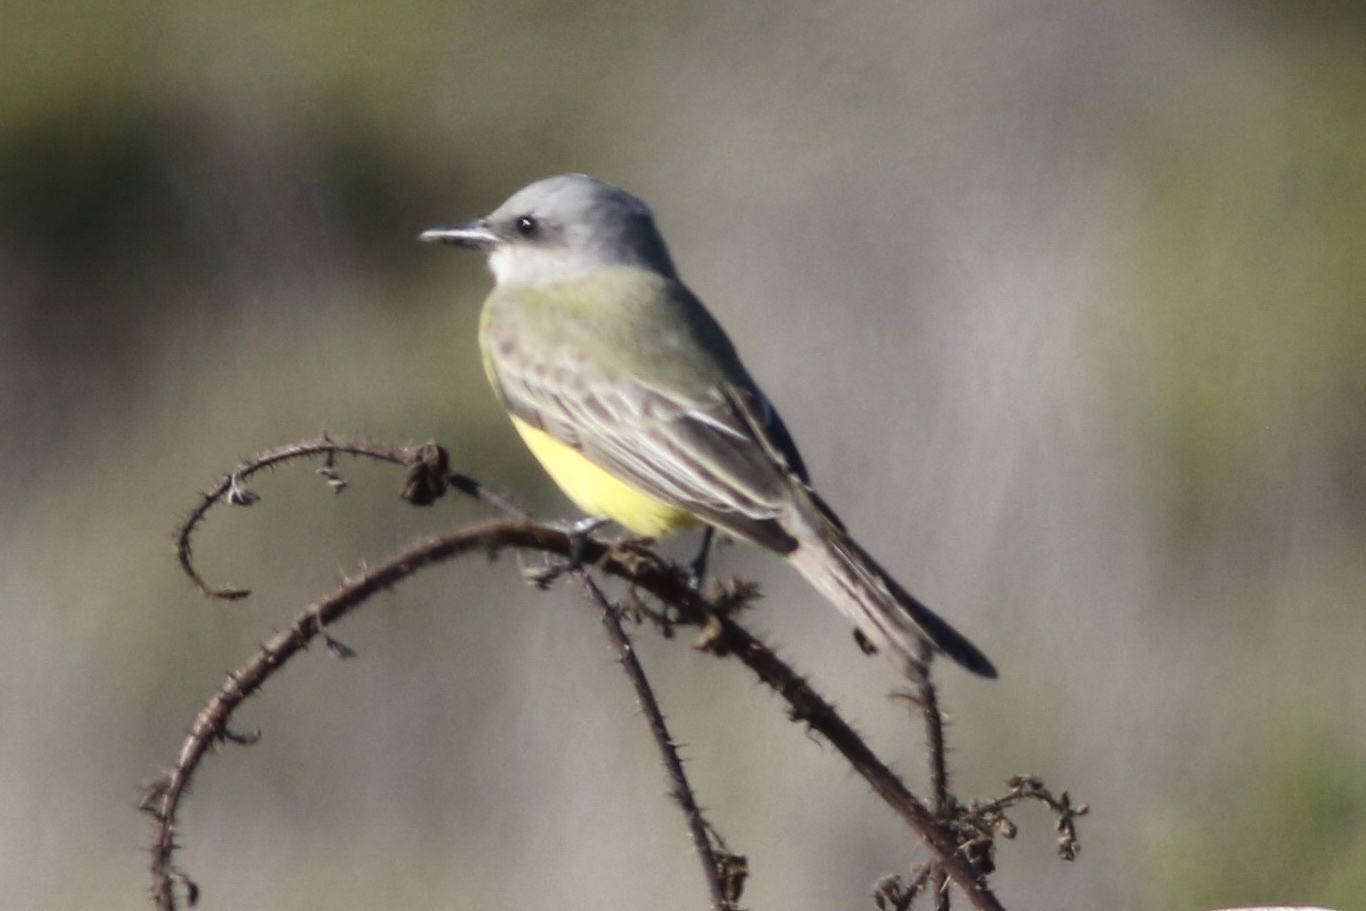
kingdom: Animalia
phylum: Chordata
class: Aves
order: Passeriformes
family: Tyrannidae
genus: Tyrannus
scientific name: Tyrannus melancholicus
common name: Tropical kingbird
